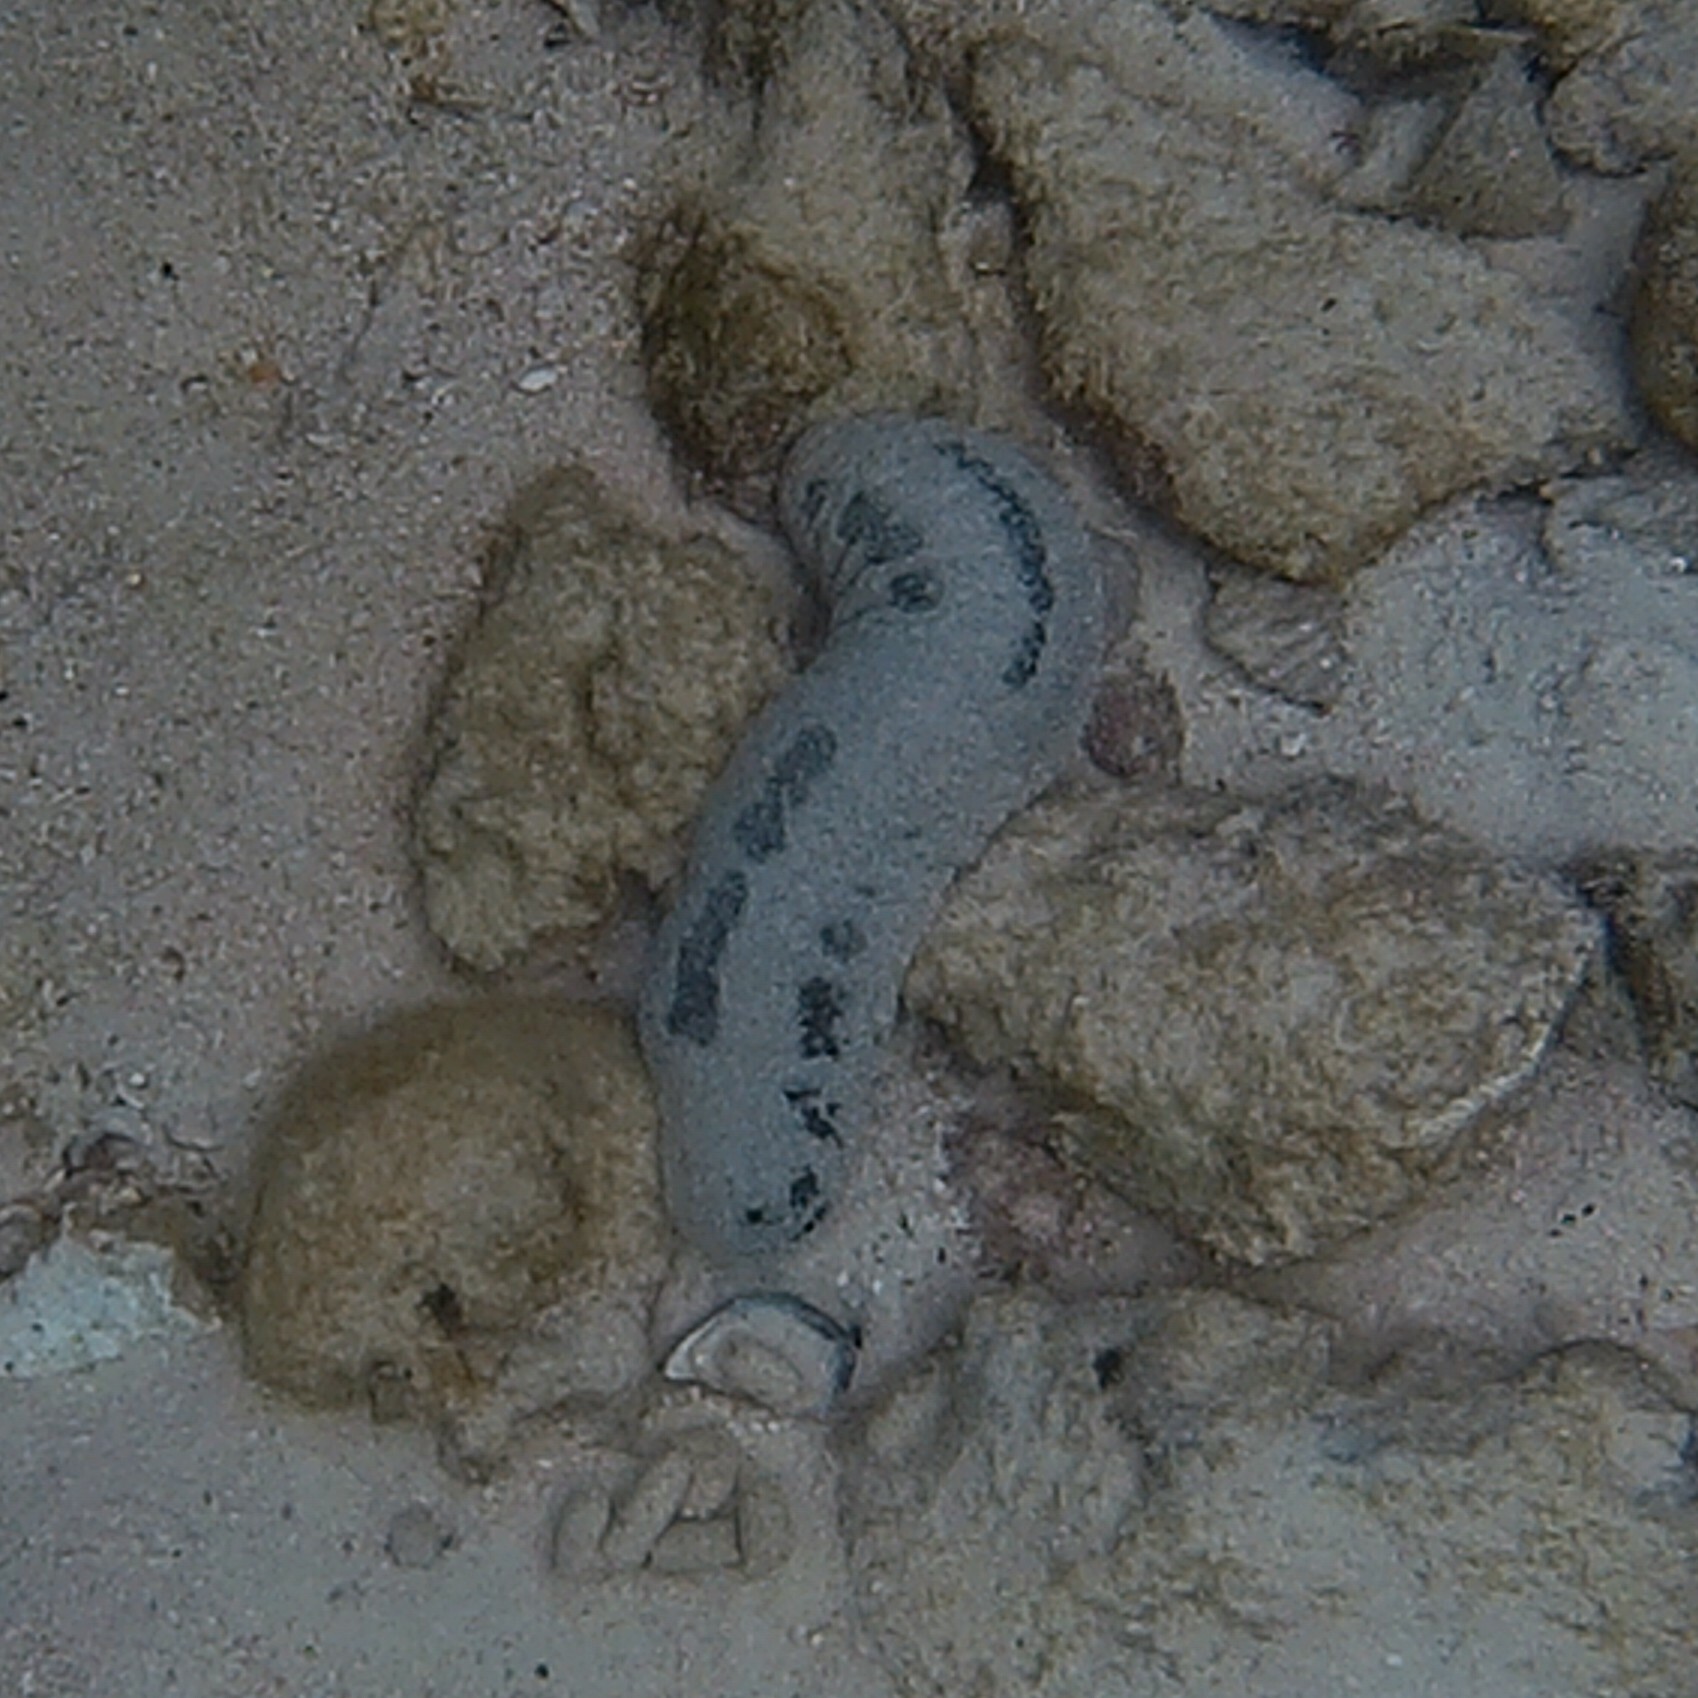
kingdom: Animalia
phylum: Echinodermata
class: Holothuroidea
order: Holothuriida
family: Holothuriidae
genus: Holothuria
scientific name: Holothuria atra
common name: Lollyfish
